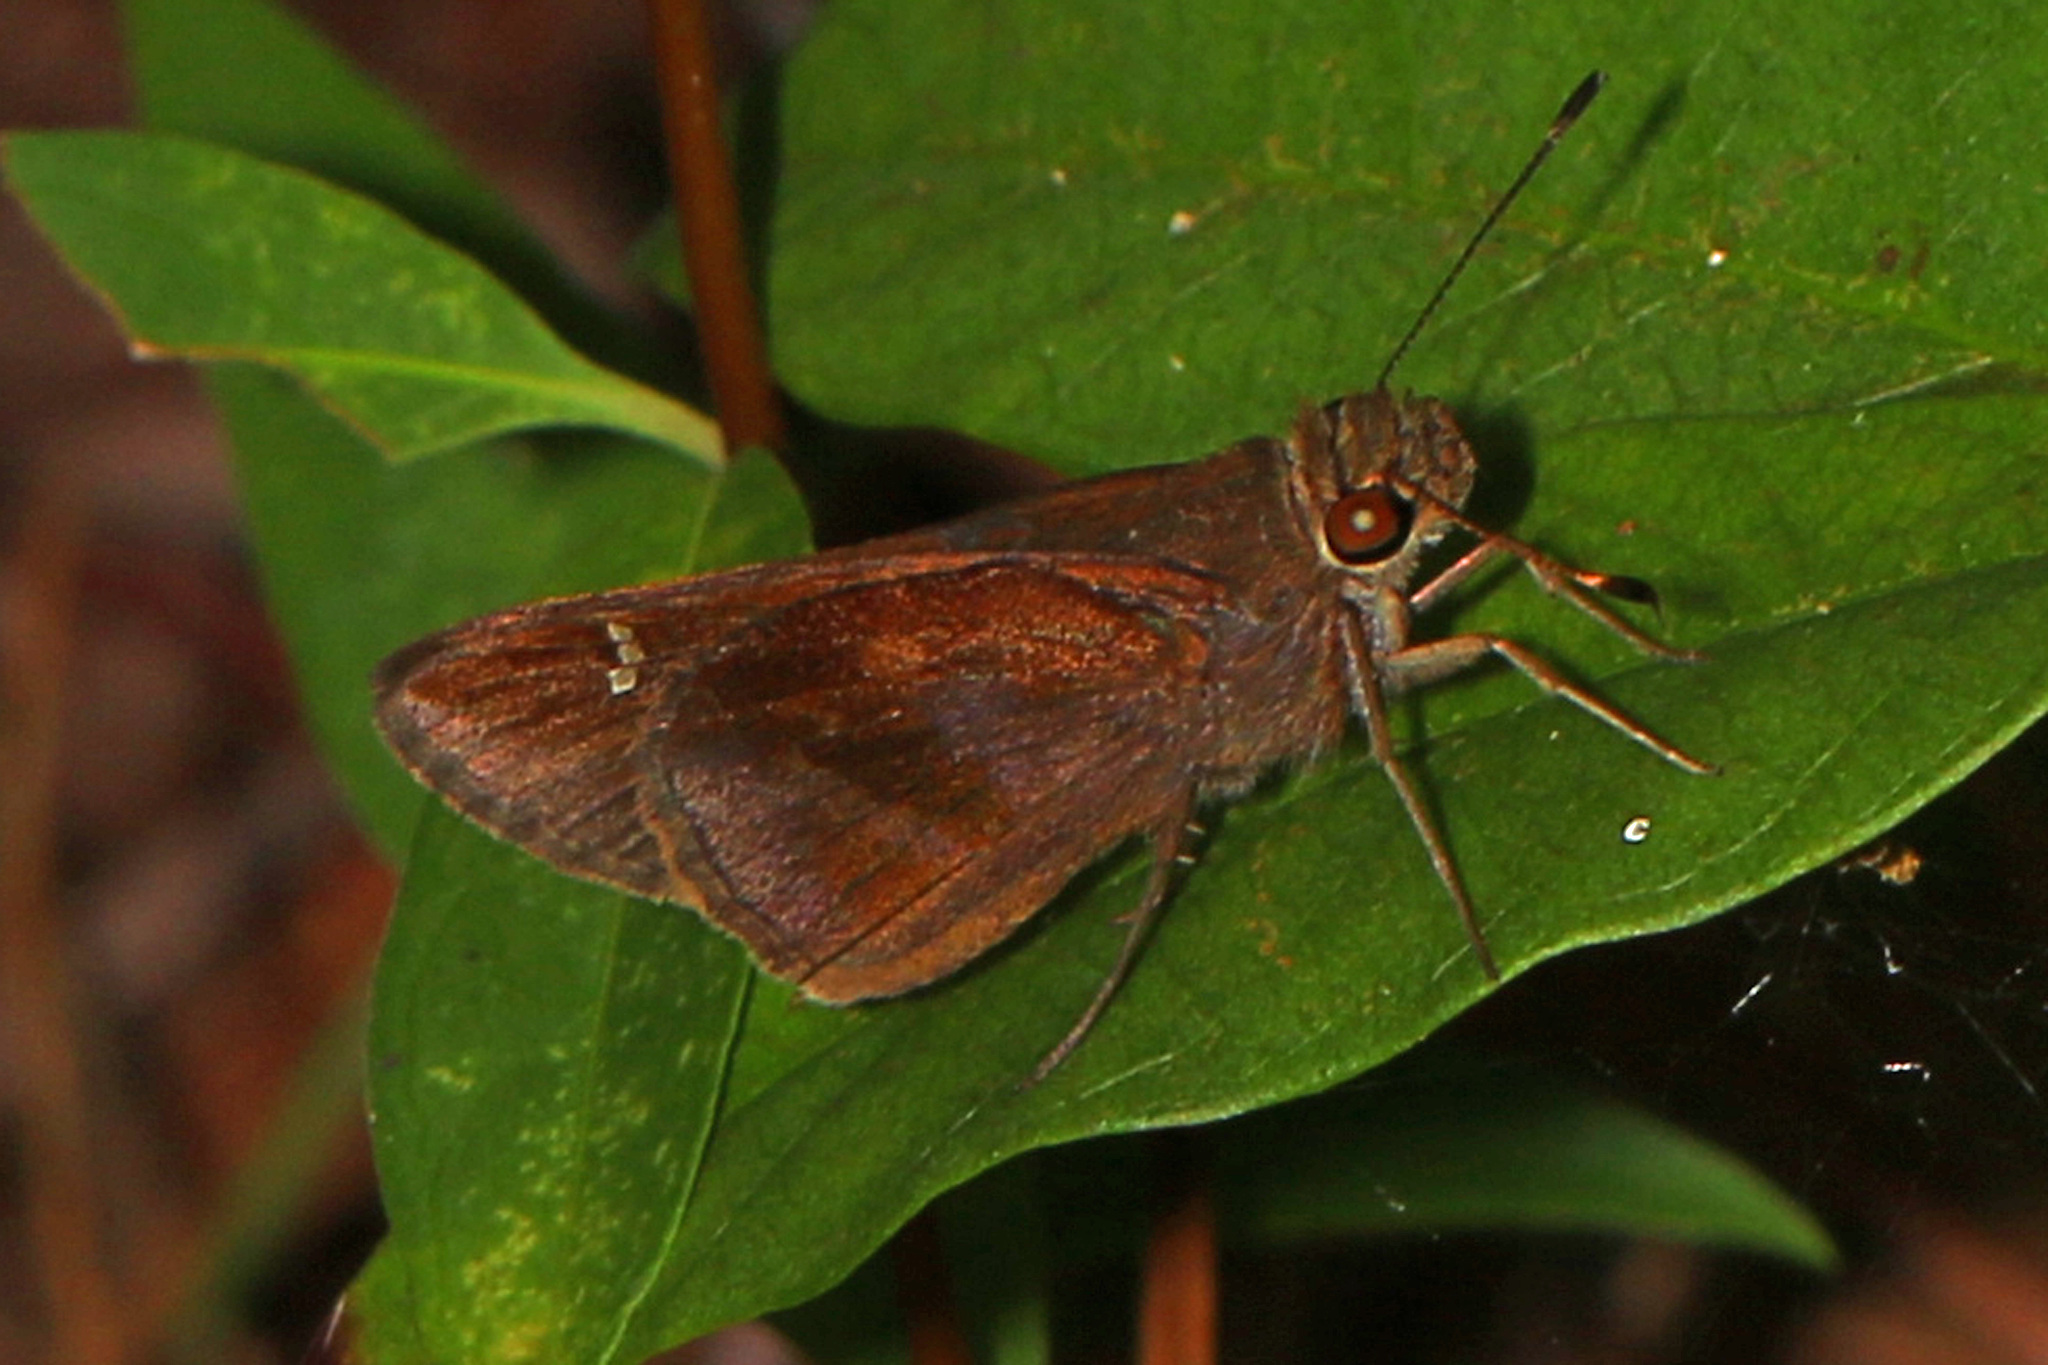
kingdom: Animalia
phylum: Arthropoda
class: Insecta
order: Lepidoptera
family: Hesperiidae
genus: Lerema
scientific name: Lerema accius
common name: Clouded skipper
